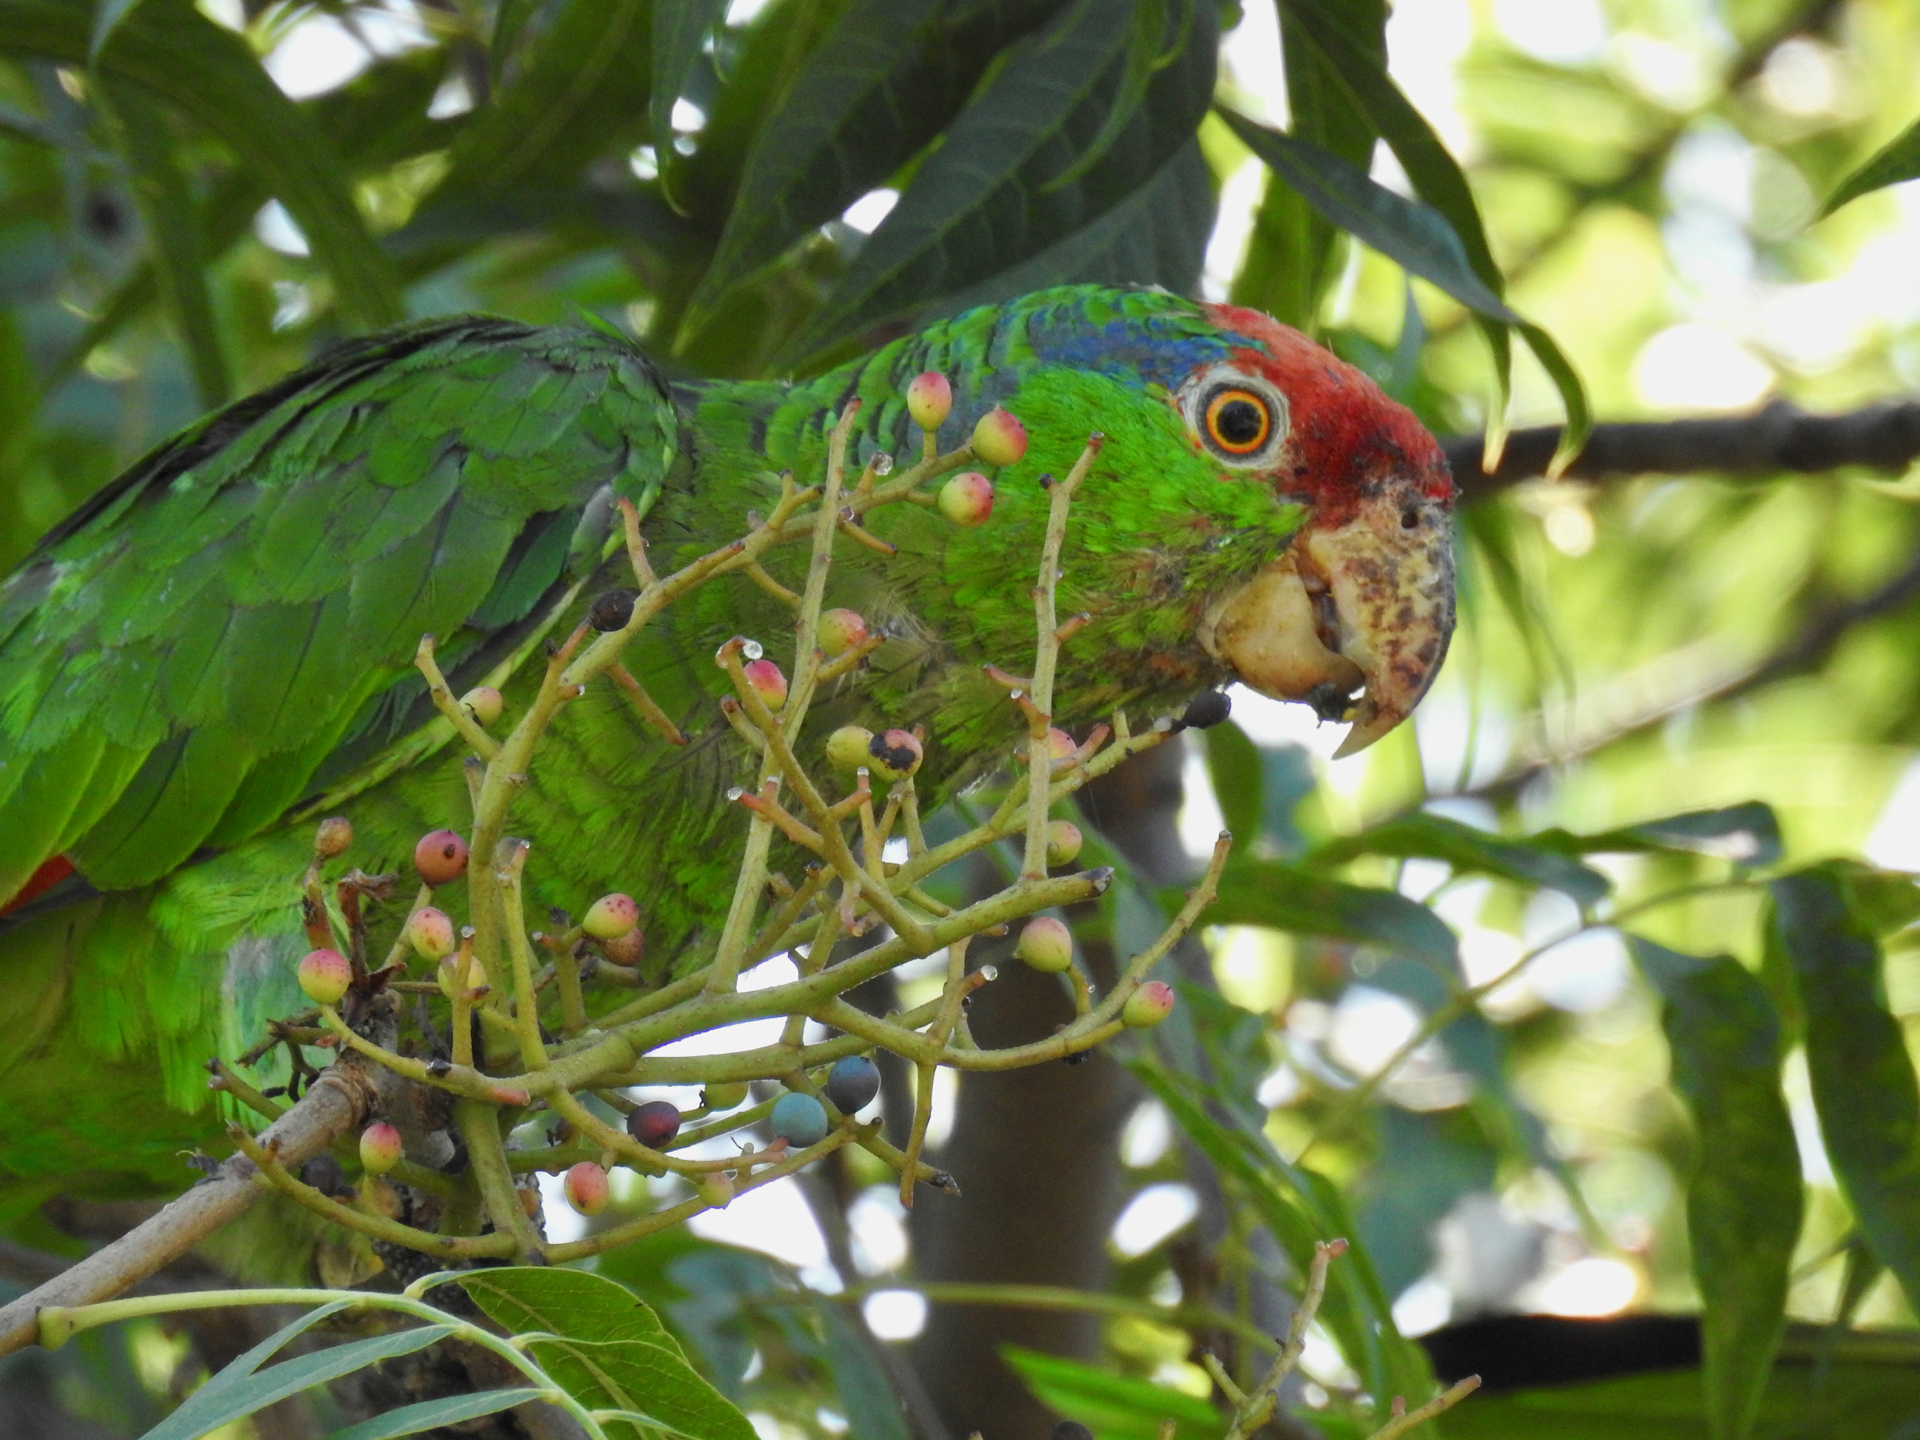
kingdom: Animalia
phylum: Chordata
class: Aves
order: Psittaciformes
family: Psittacidae
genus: Amazona
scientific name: Amazona viridigenalis
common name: Red-crowned amazon
